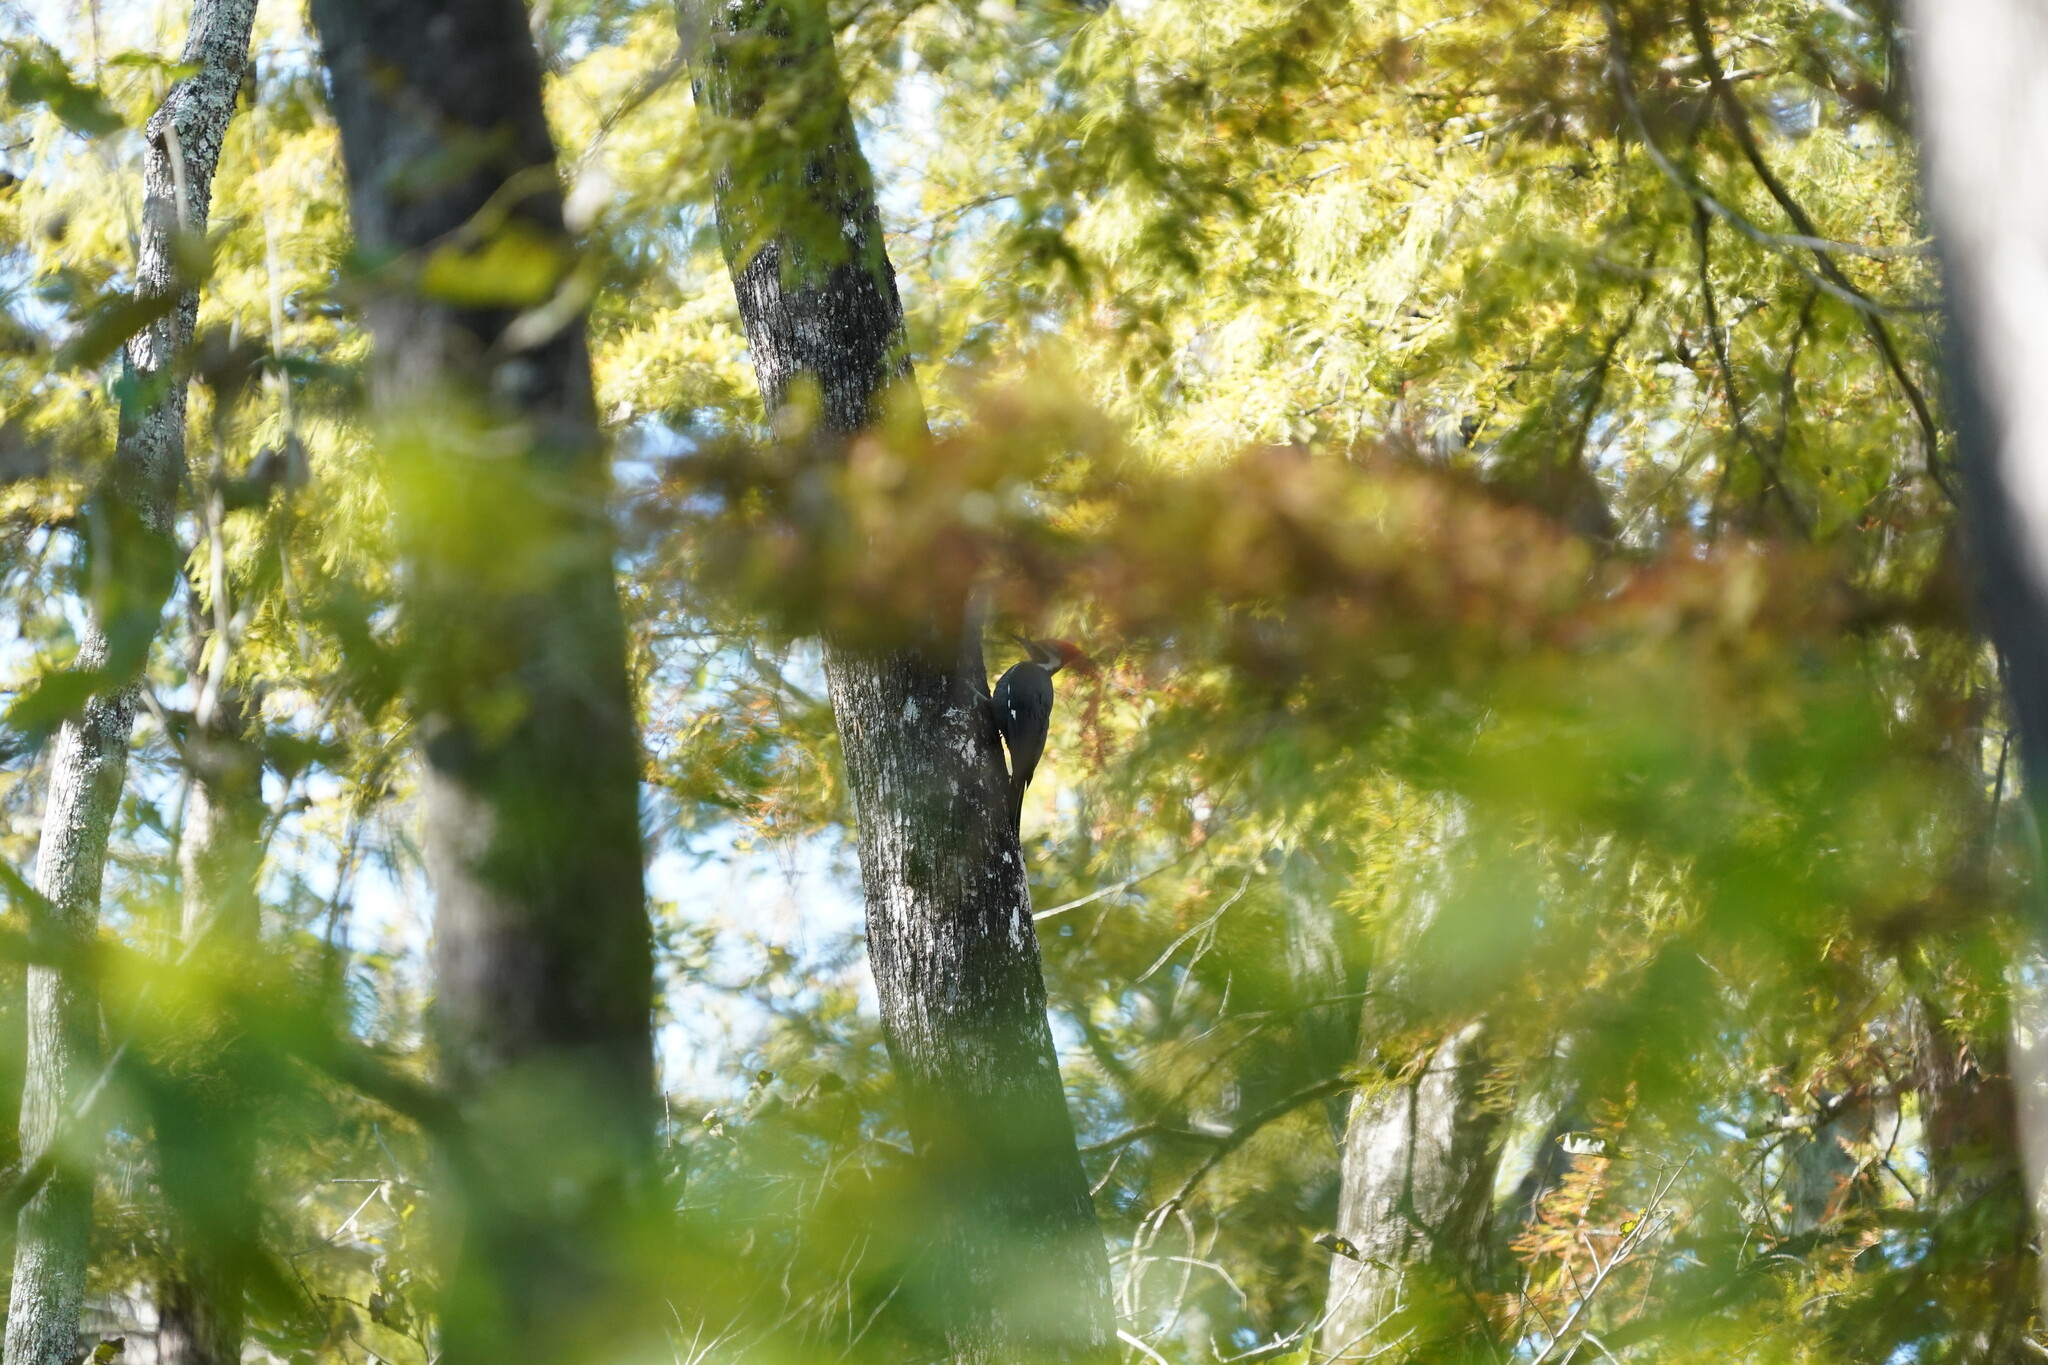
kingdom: Animalia
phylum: Chordata
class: Aves
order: Piciformes
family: Picidae
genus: Dryocopus
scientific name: Dryocopus pileatus
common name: Pileated woodpecker
